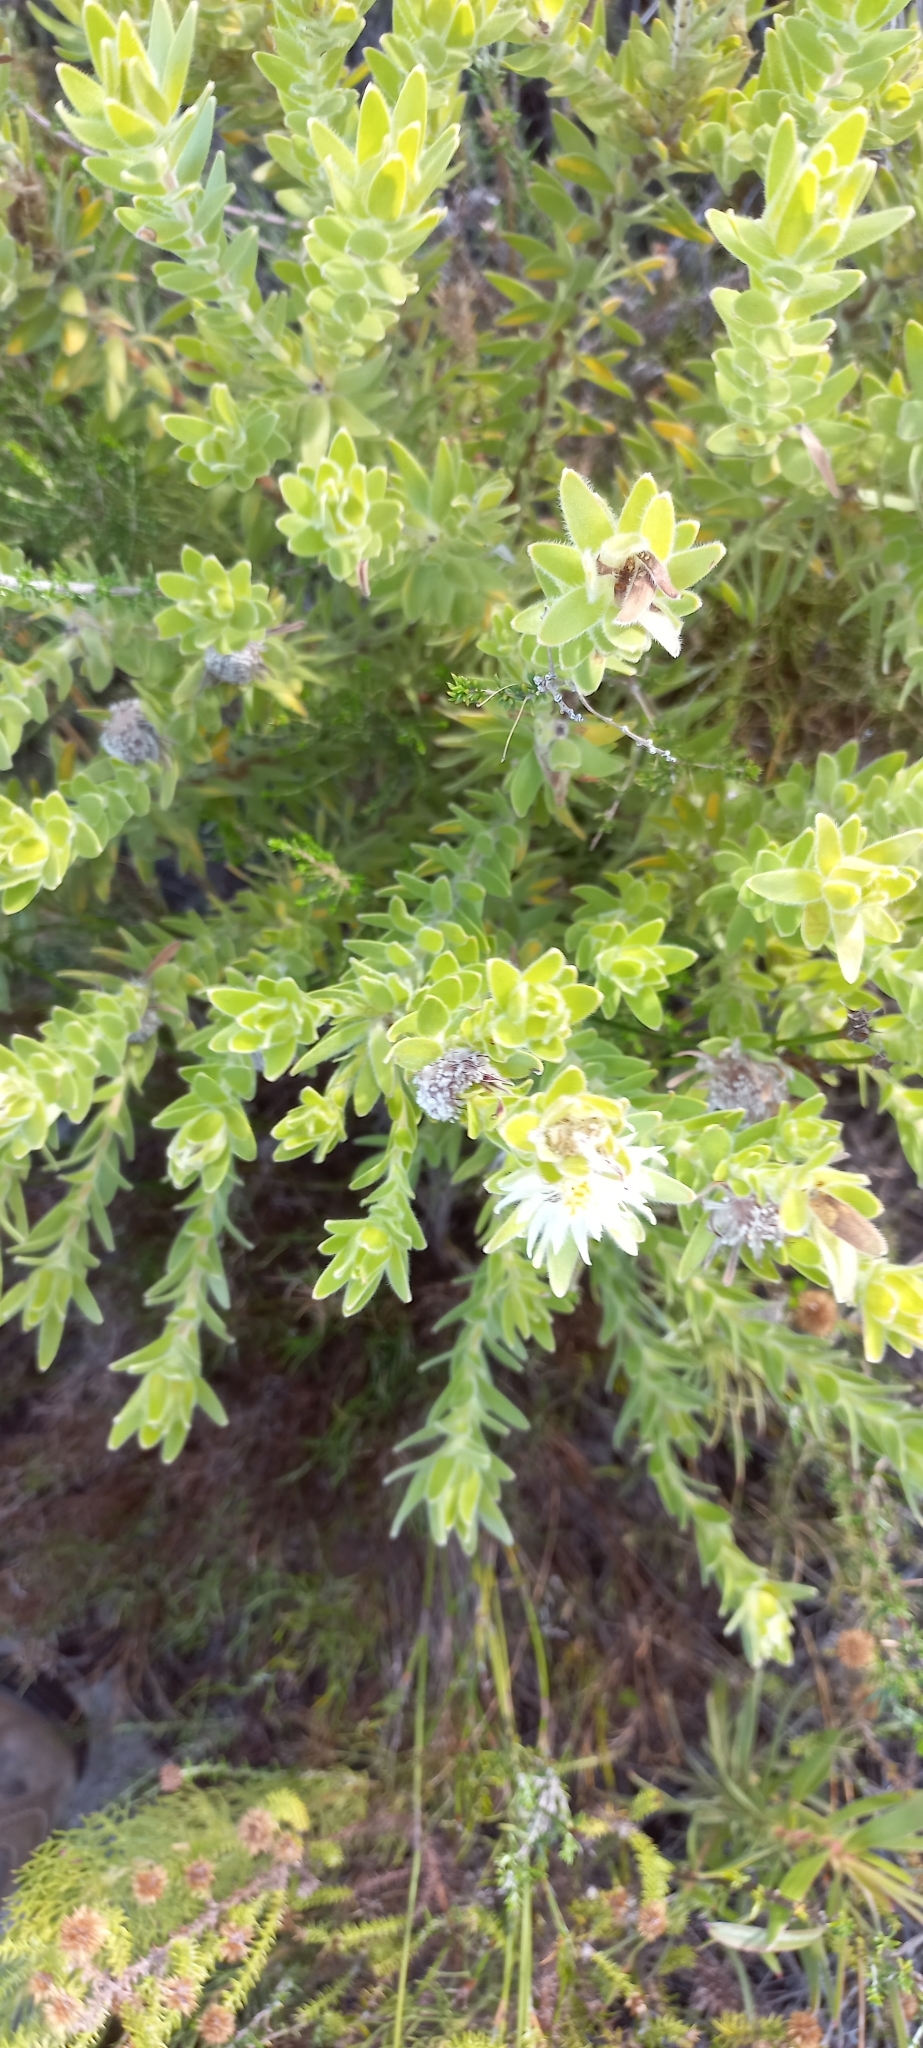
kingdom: Plantae
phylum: Tracheophyta
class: Magnoliopsida
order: Proteales
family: Proteaceae
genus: Diastella
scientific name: Diastella thymelaeoides
